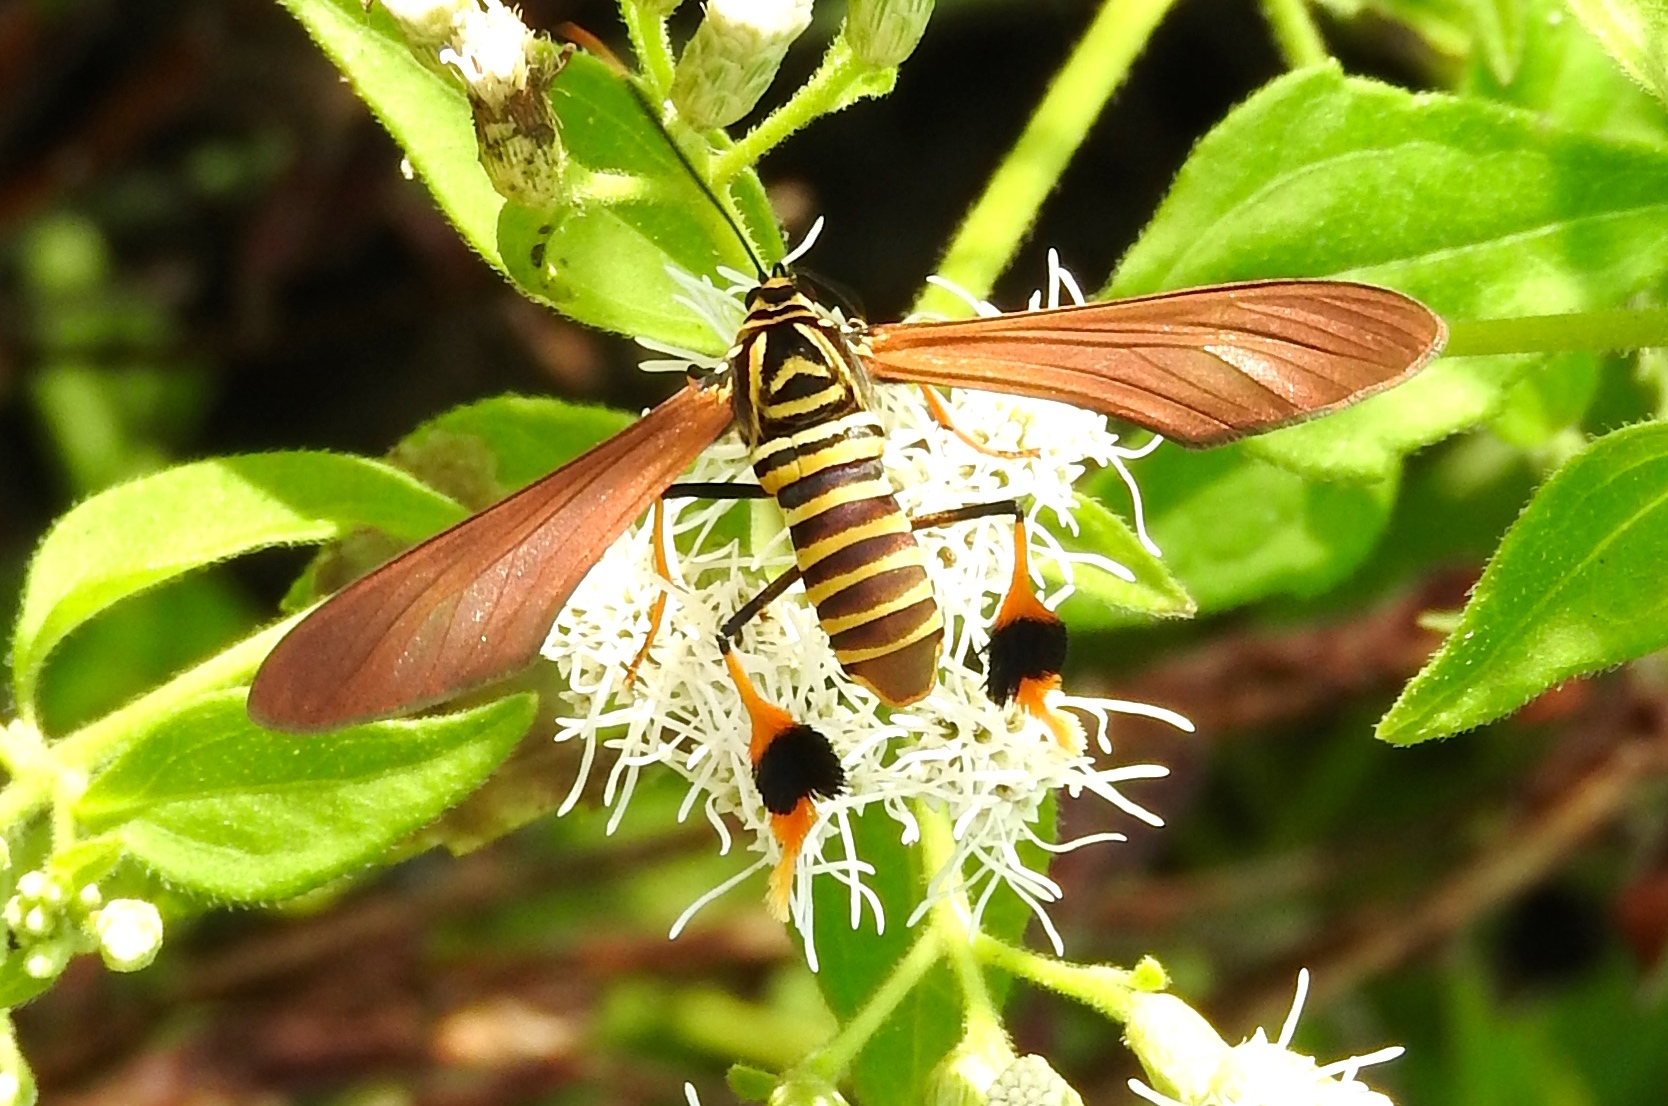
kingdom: Animalia
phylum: Arthropoda
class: Insecta
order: Lepidoptera
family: Erebidae
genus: Horama
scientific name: Horama panthalon
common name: Texas wasp moth
